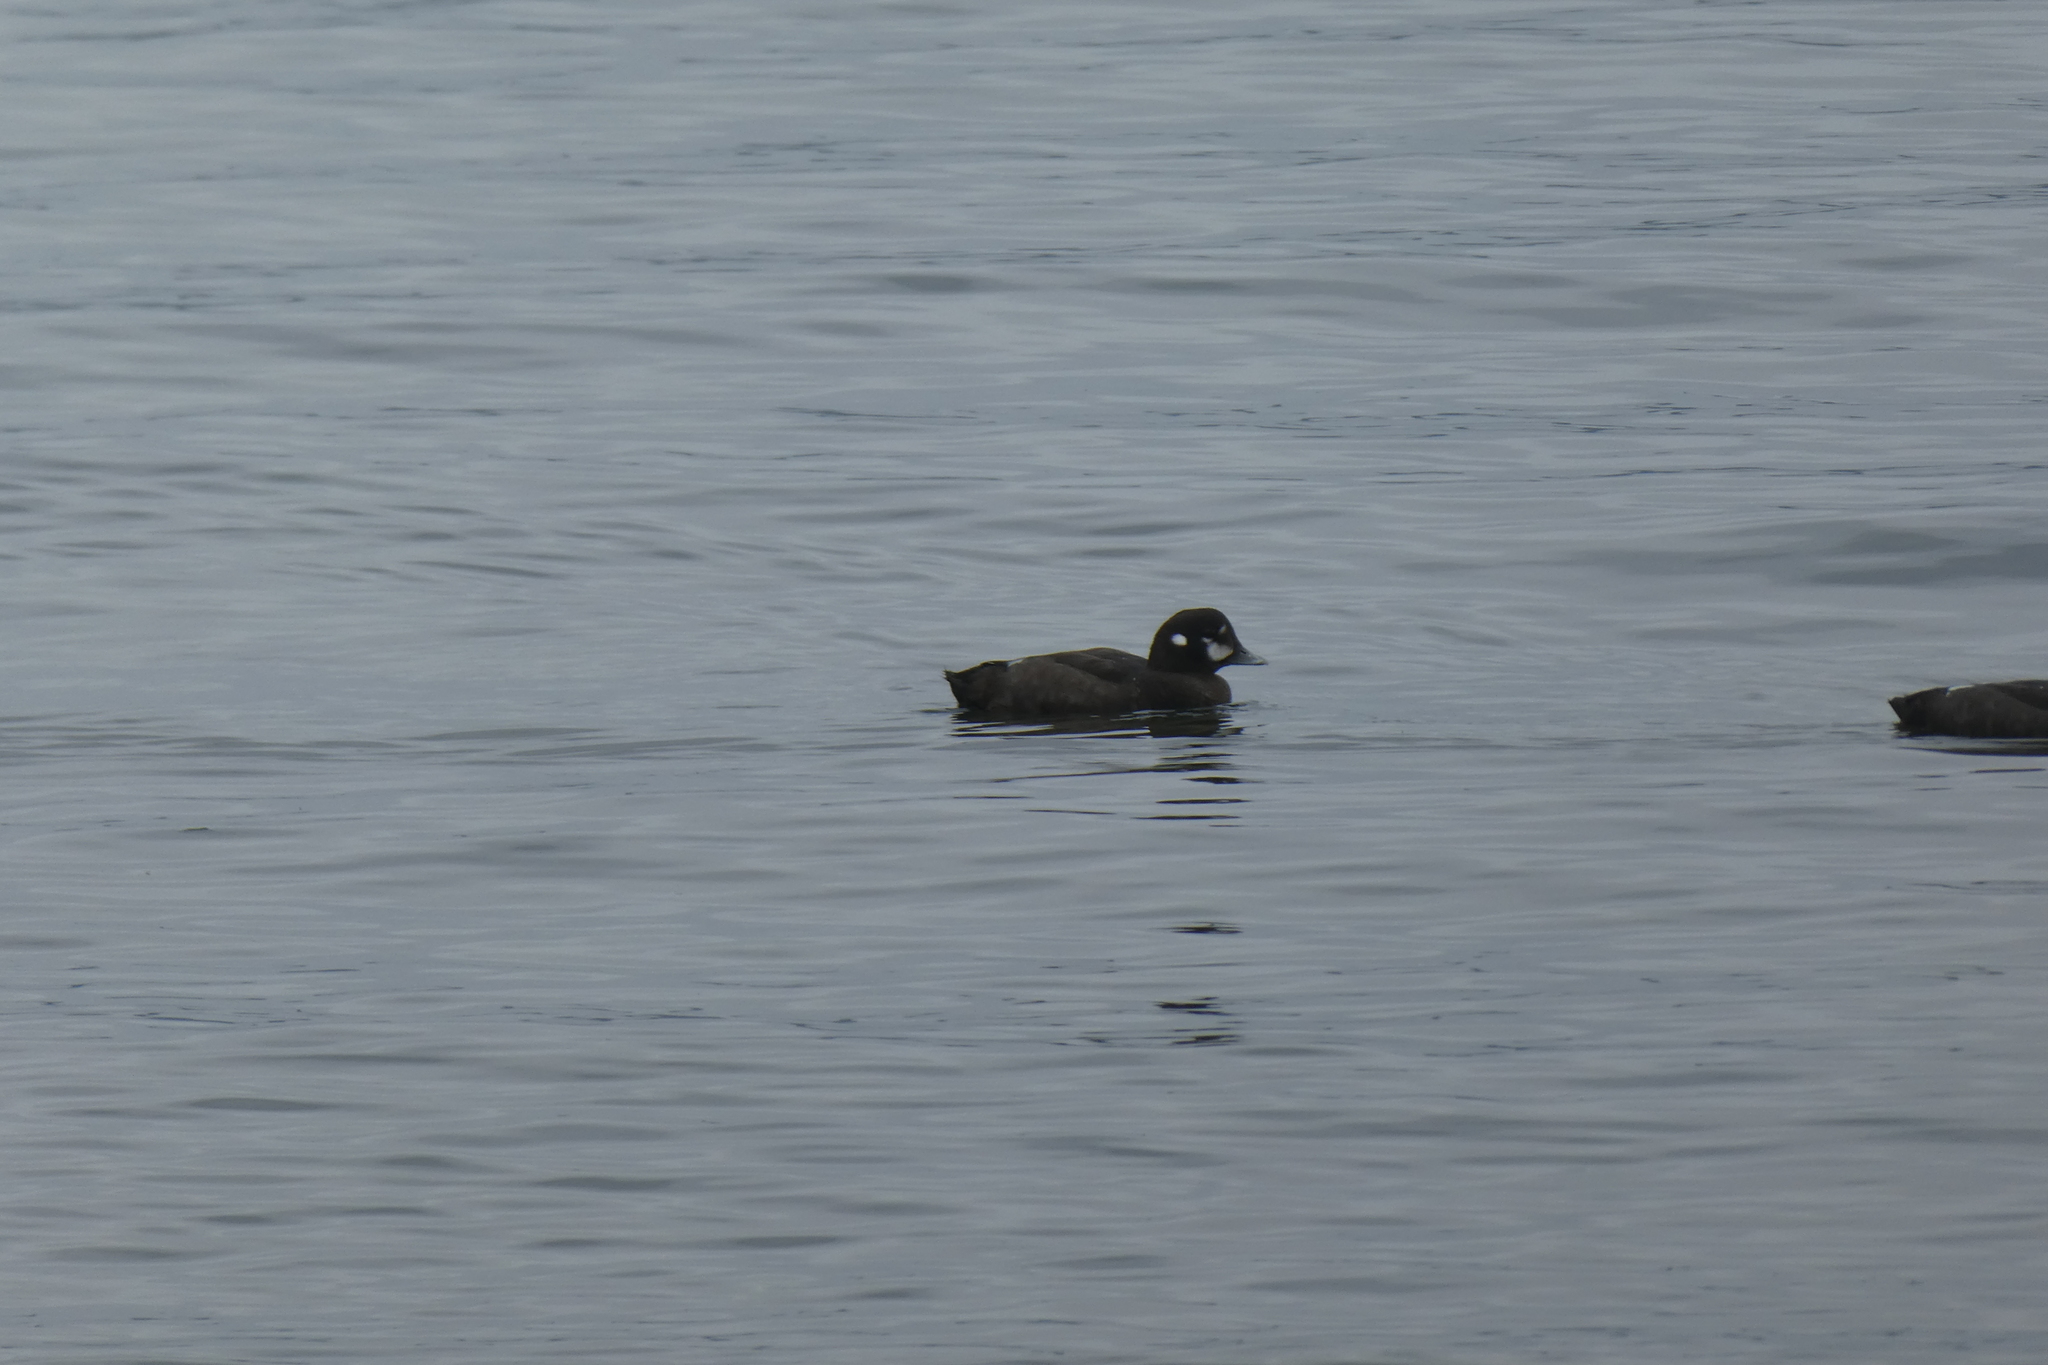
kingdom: Animalia
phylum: Chordata
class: Aves
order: Anseriformes
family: Anatidae
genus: Histrionicus
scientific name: Histrionicus histrionicus
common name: Harlequin duck
